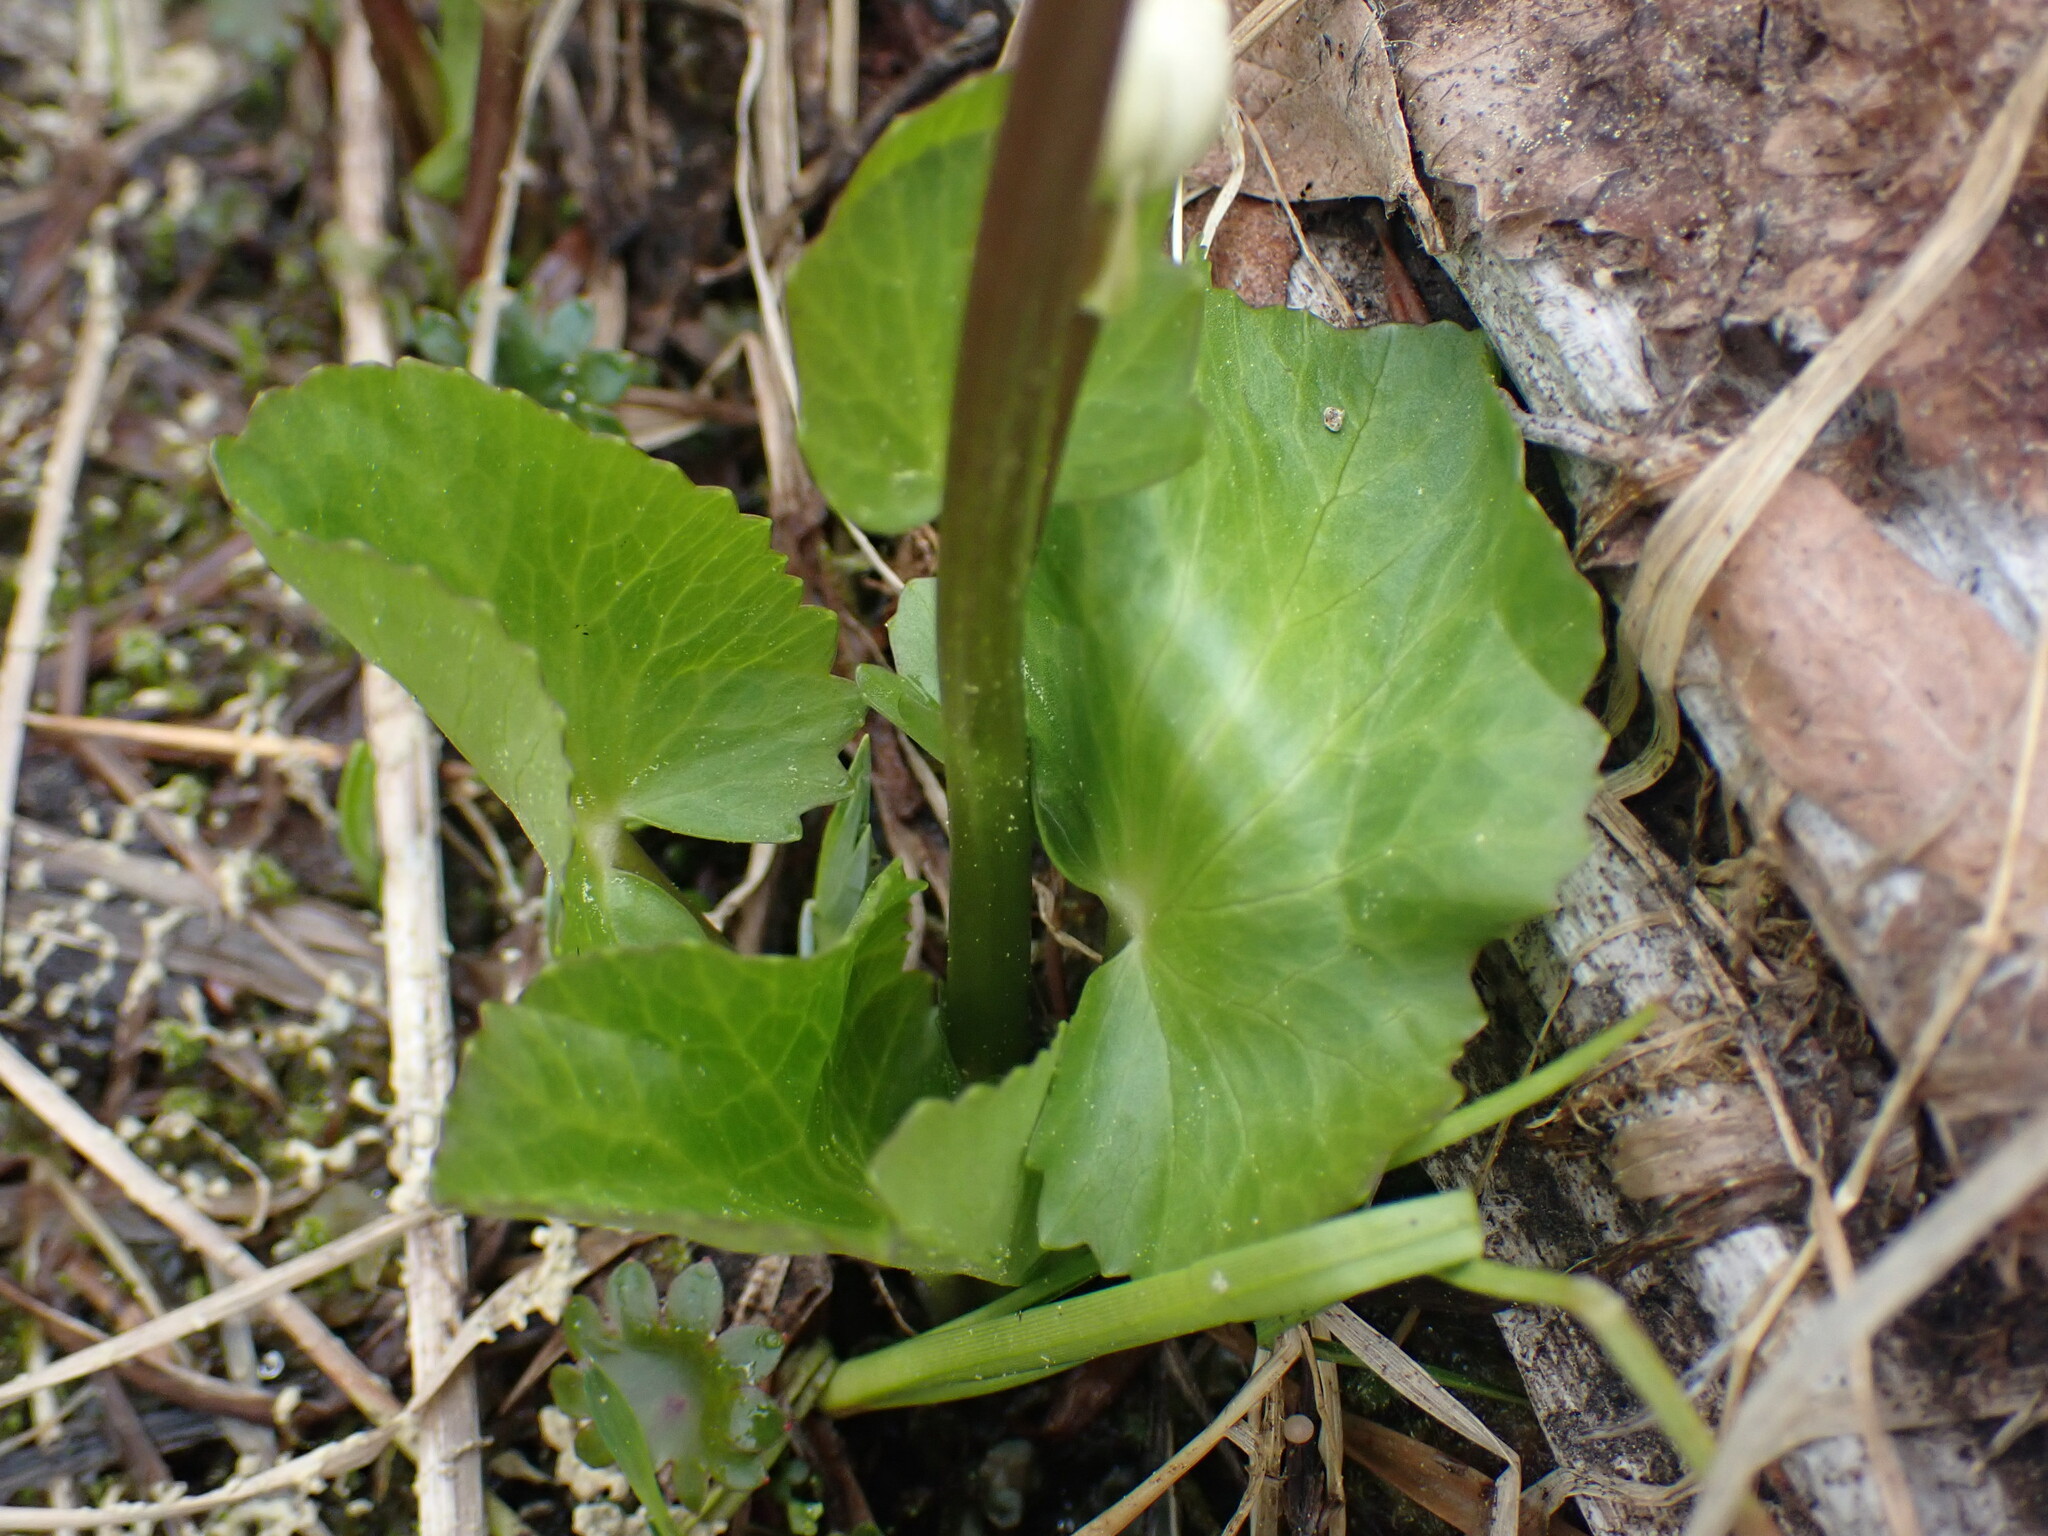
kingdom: Plantae
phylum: Tracheophyta
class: Magnoliopsida
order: Ranunculales
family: Ranunculaceae
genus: Caltha
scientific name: Caltha leptosepala
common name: Elkslip
